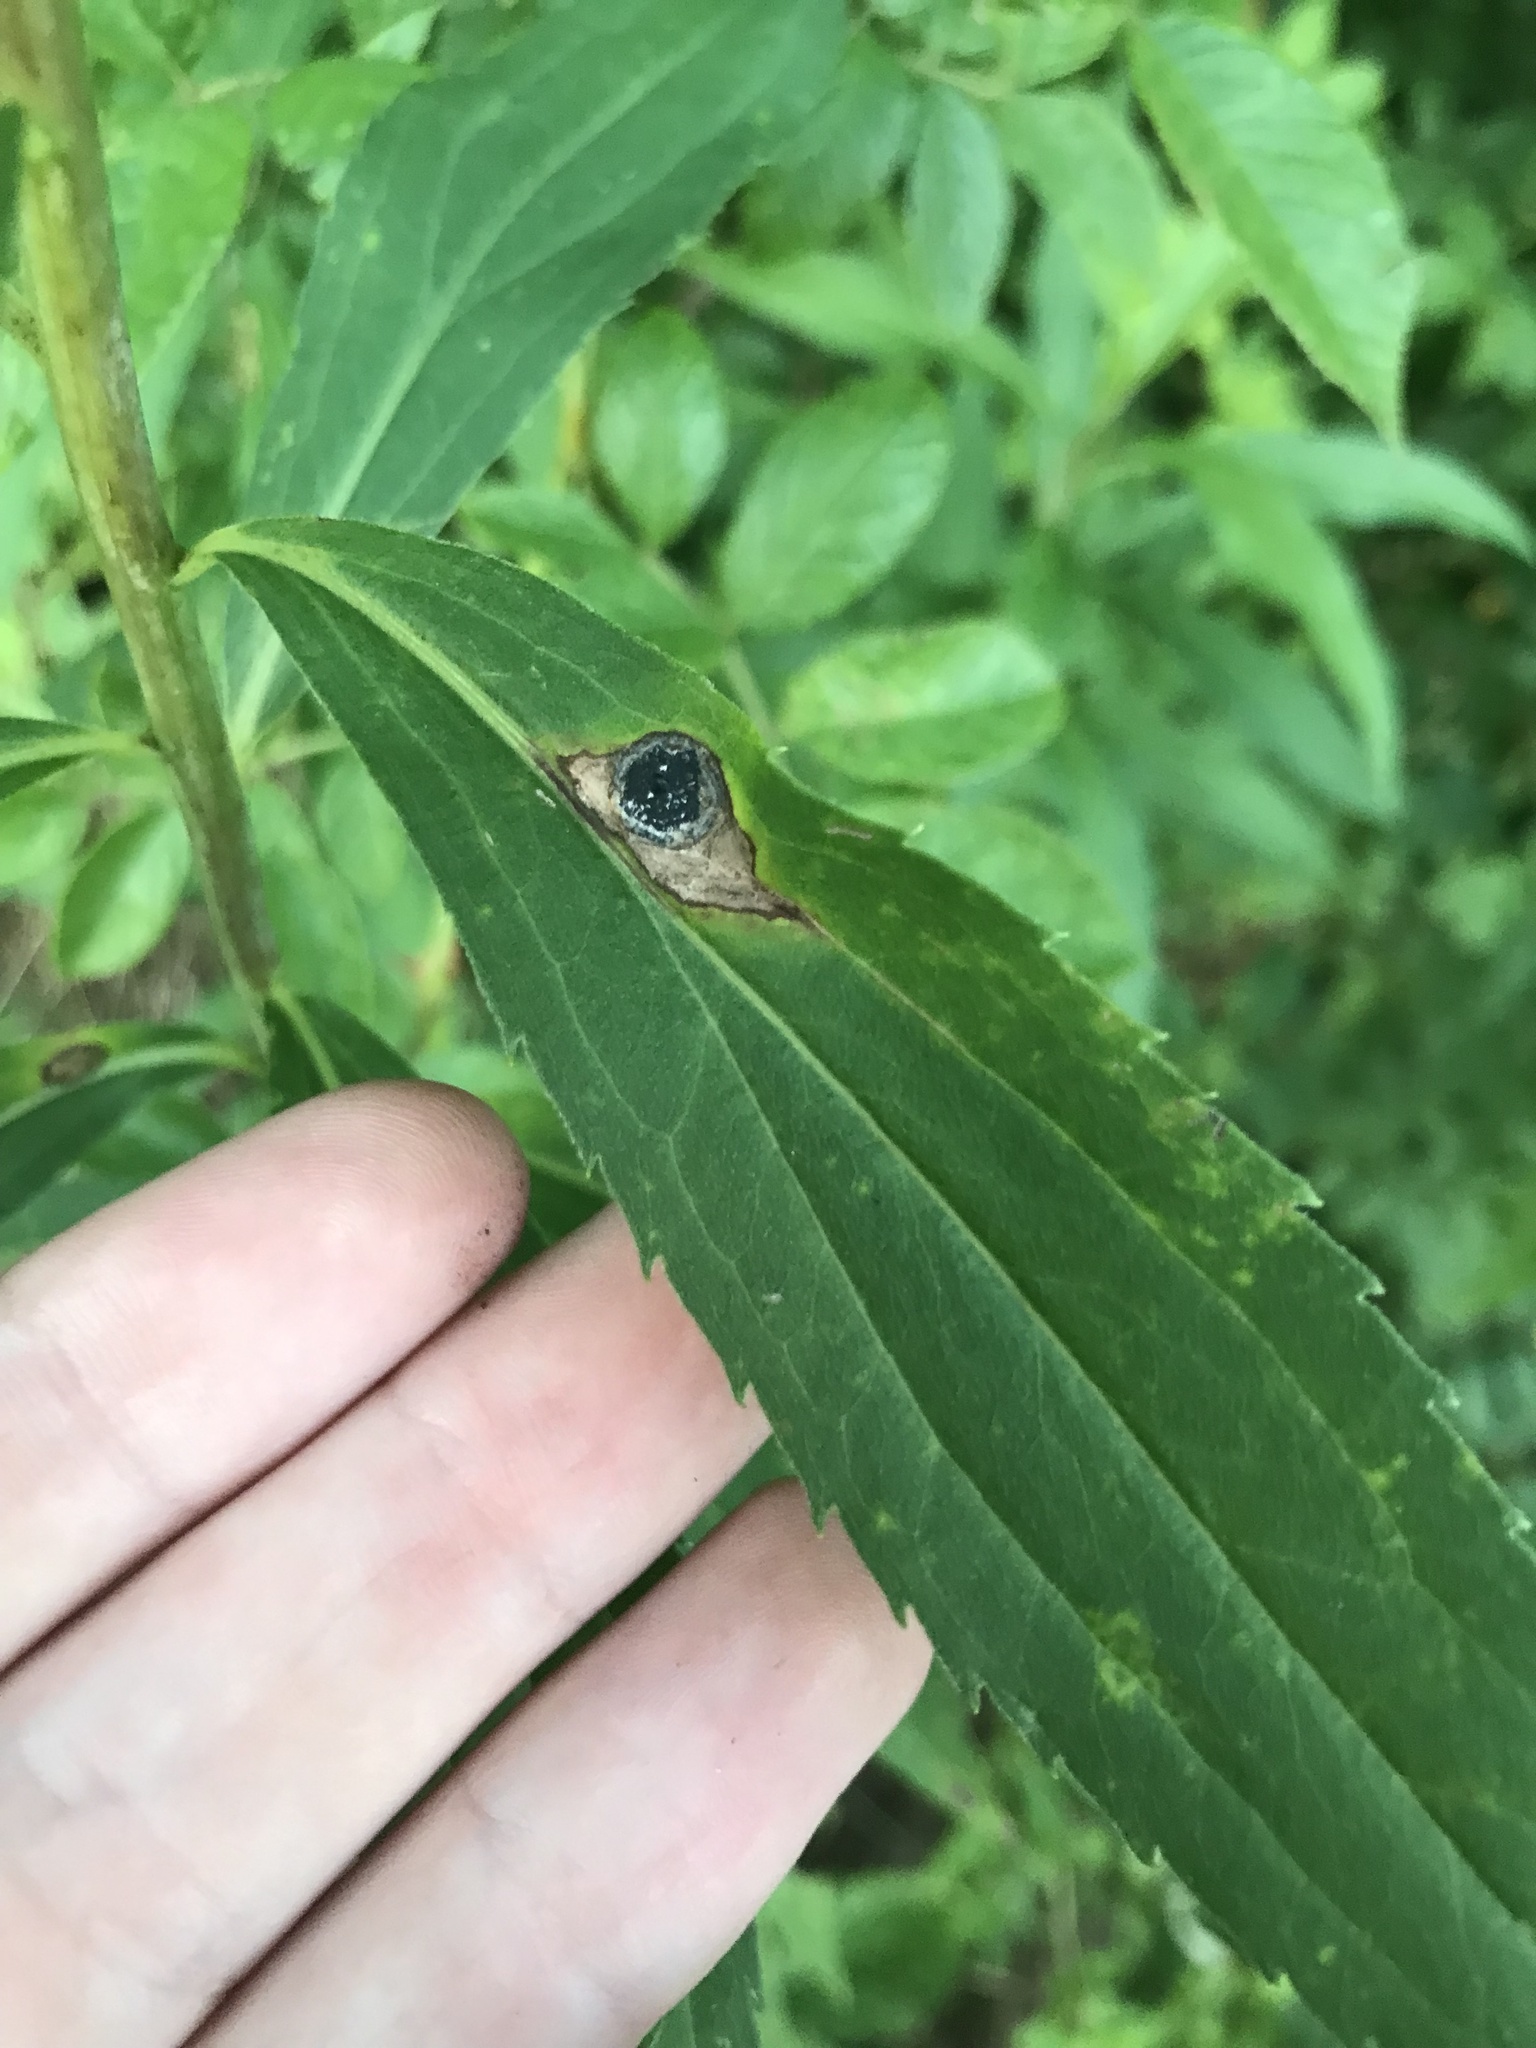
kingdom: Animalia
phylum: Arthropoda
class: Insecta
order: Diptera
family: Cecidomyiidae
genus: Asteromyia
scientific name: Asteromyia carbonifera
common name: Carbonifera goldenrod gall midge
